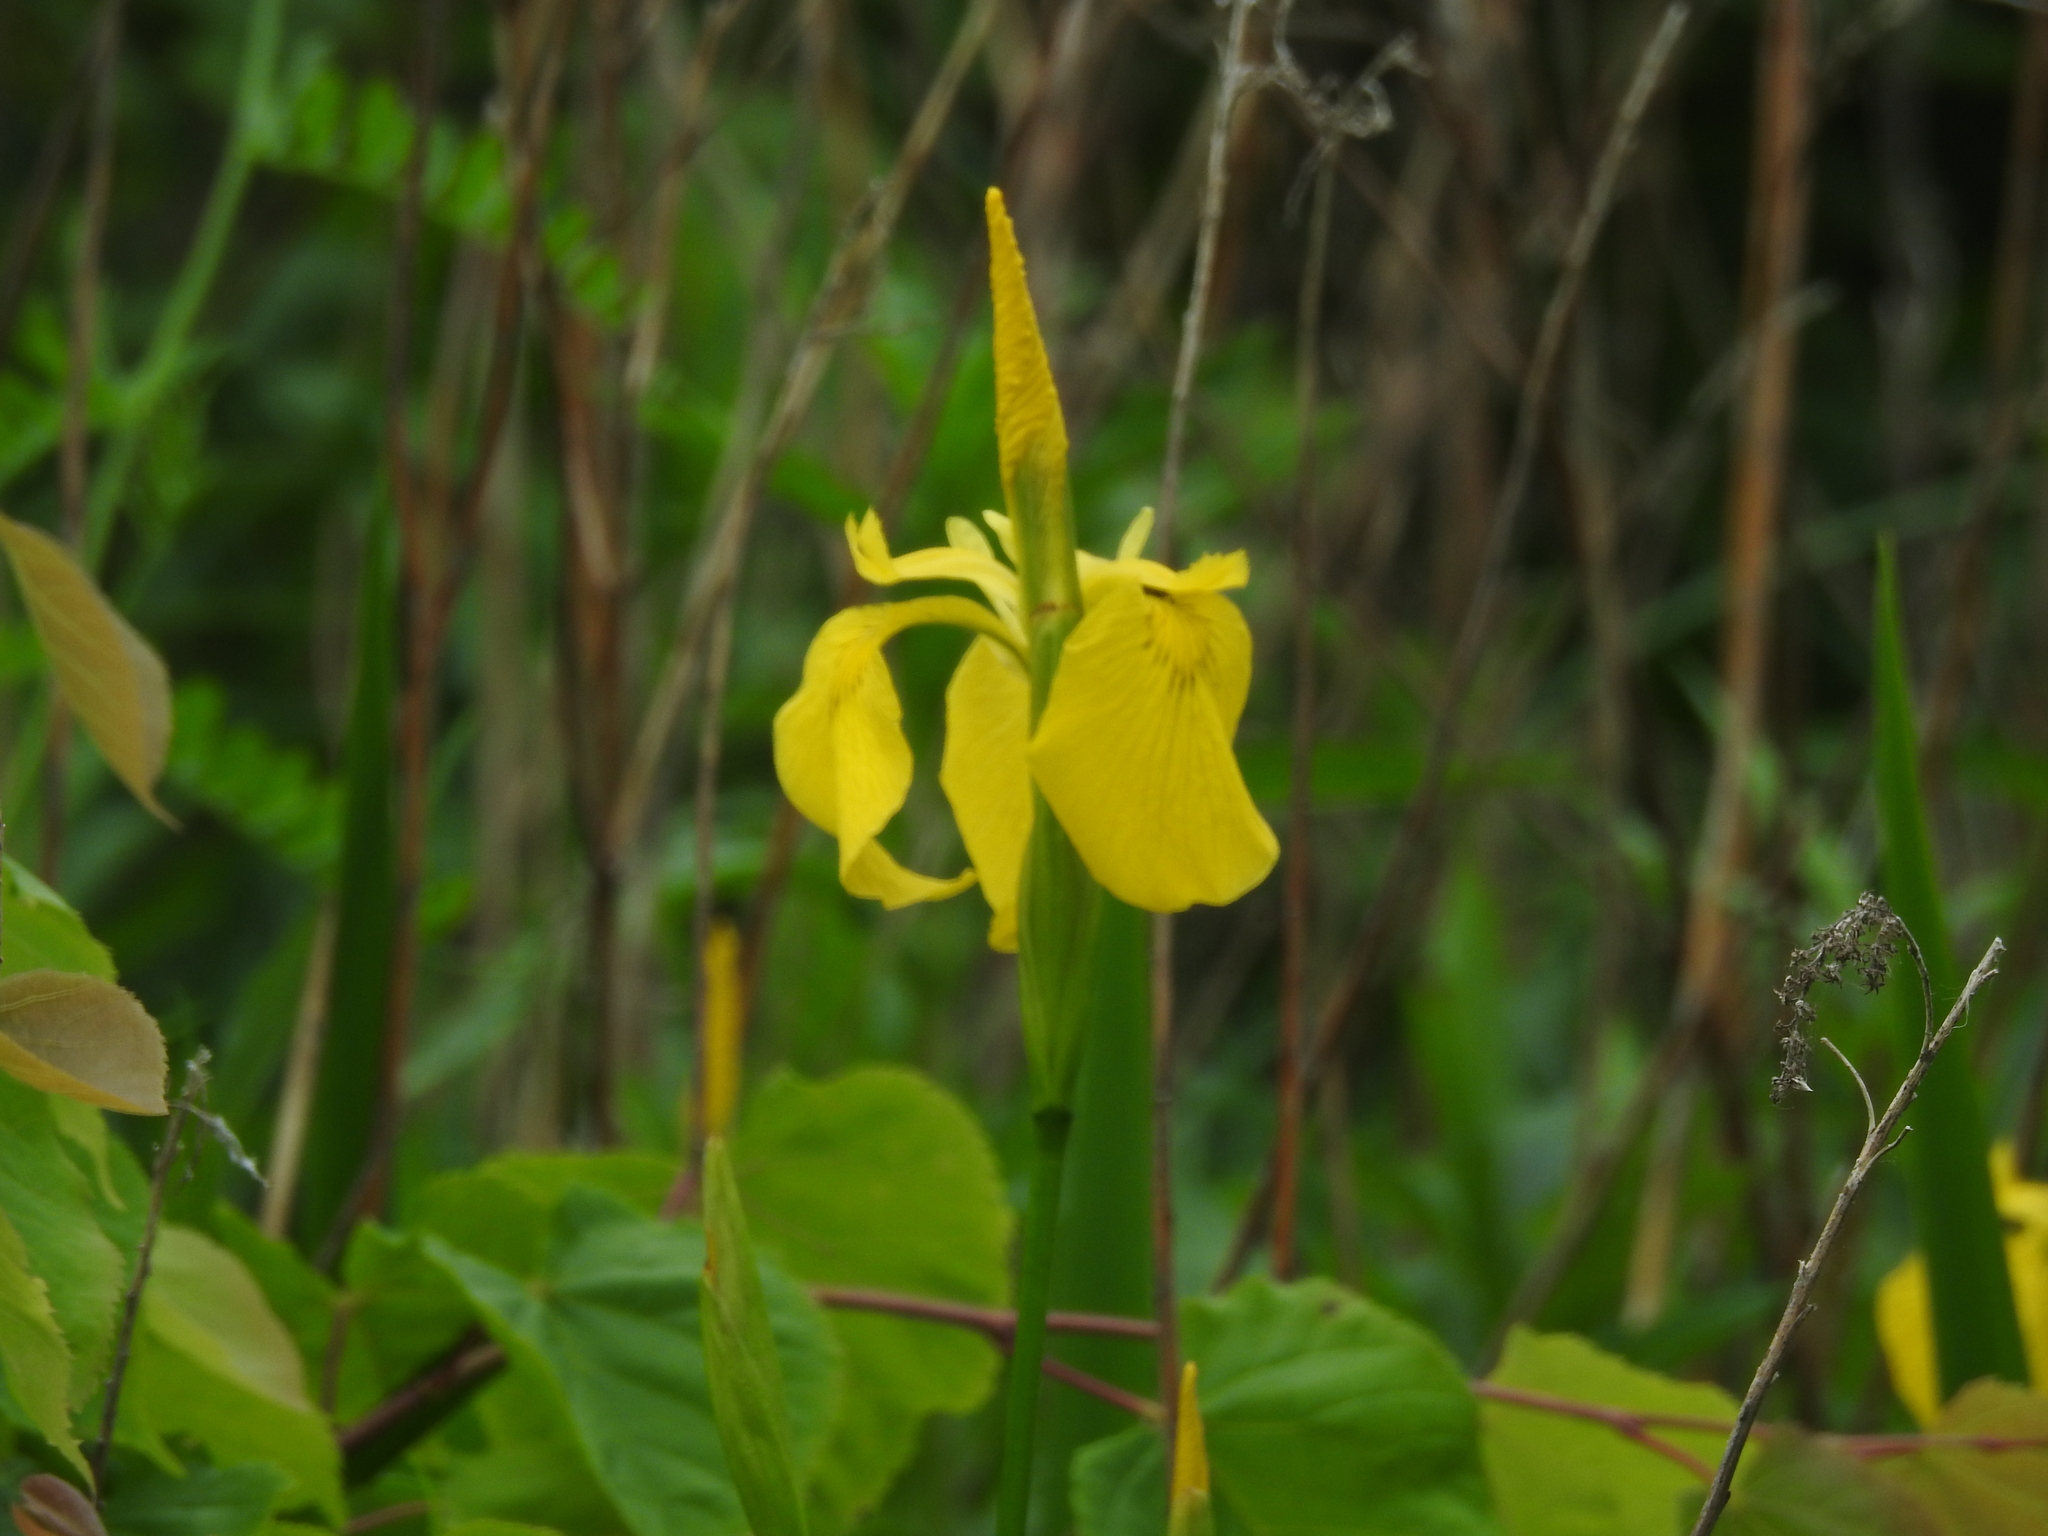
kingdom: Plantae
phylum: Tracheophyta
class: Liliopsida
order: Asparagales
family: Iridaceae
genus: Iris
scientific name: Iris pseudacorus
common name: Yellow flag
